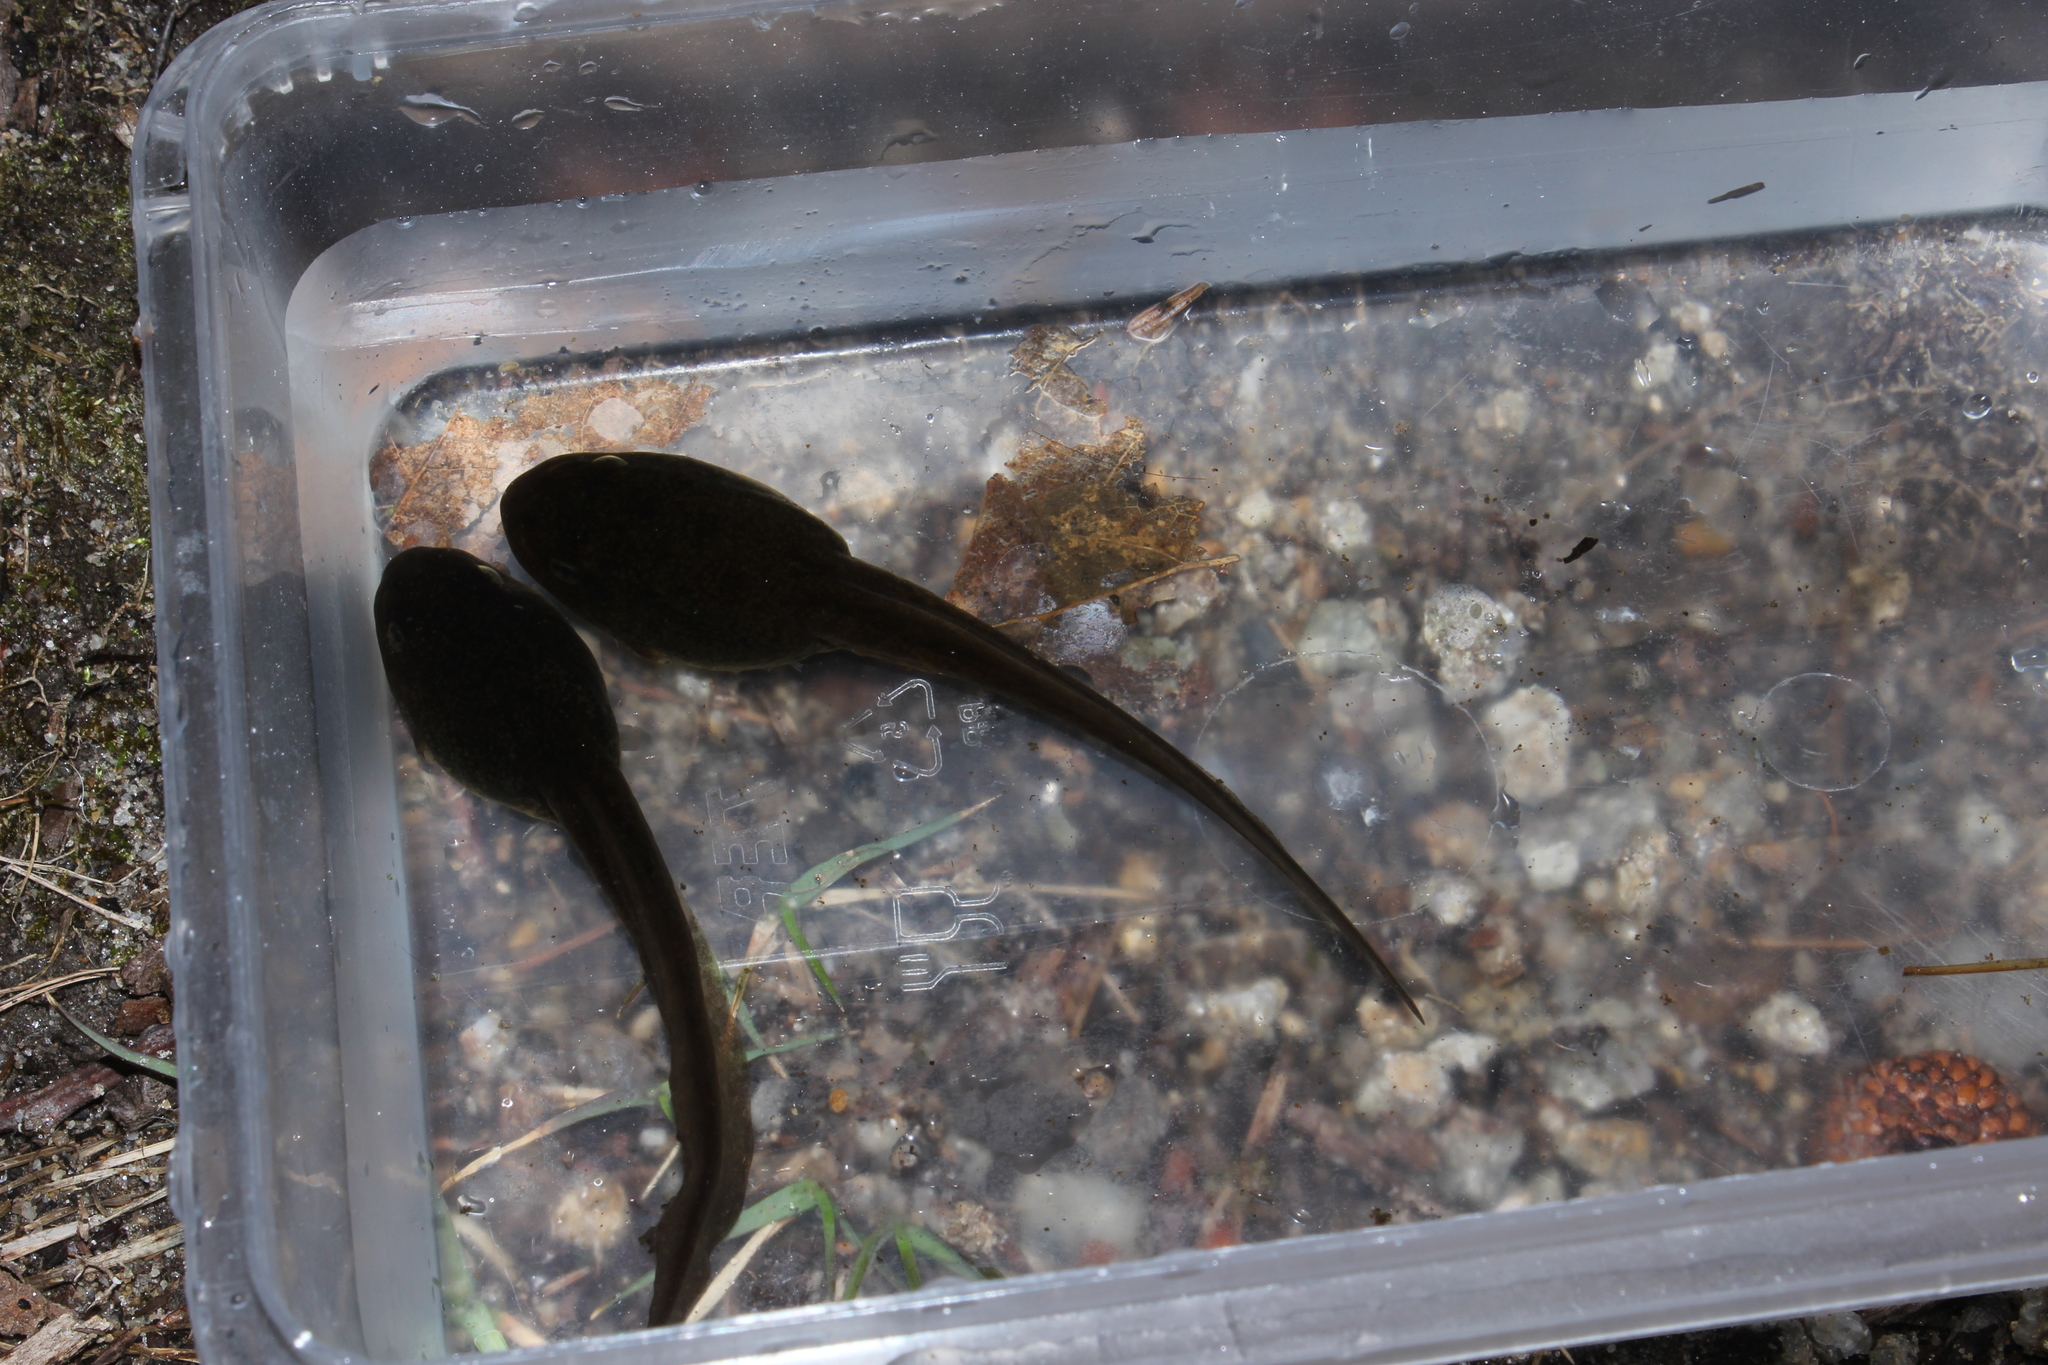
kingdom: Animalia
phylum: Chordata
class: Amphibia
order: Anura
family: Ranidae
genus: Lithobates
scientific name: Lithobates catesbeianus
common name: American bullfrog
